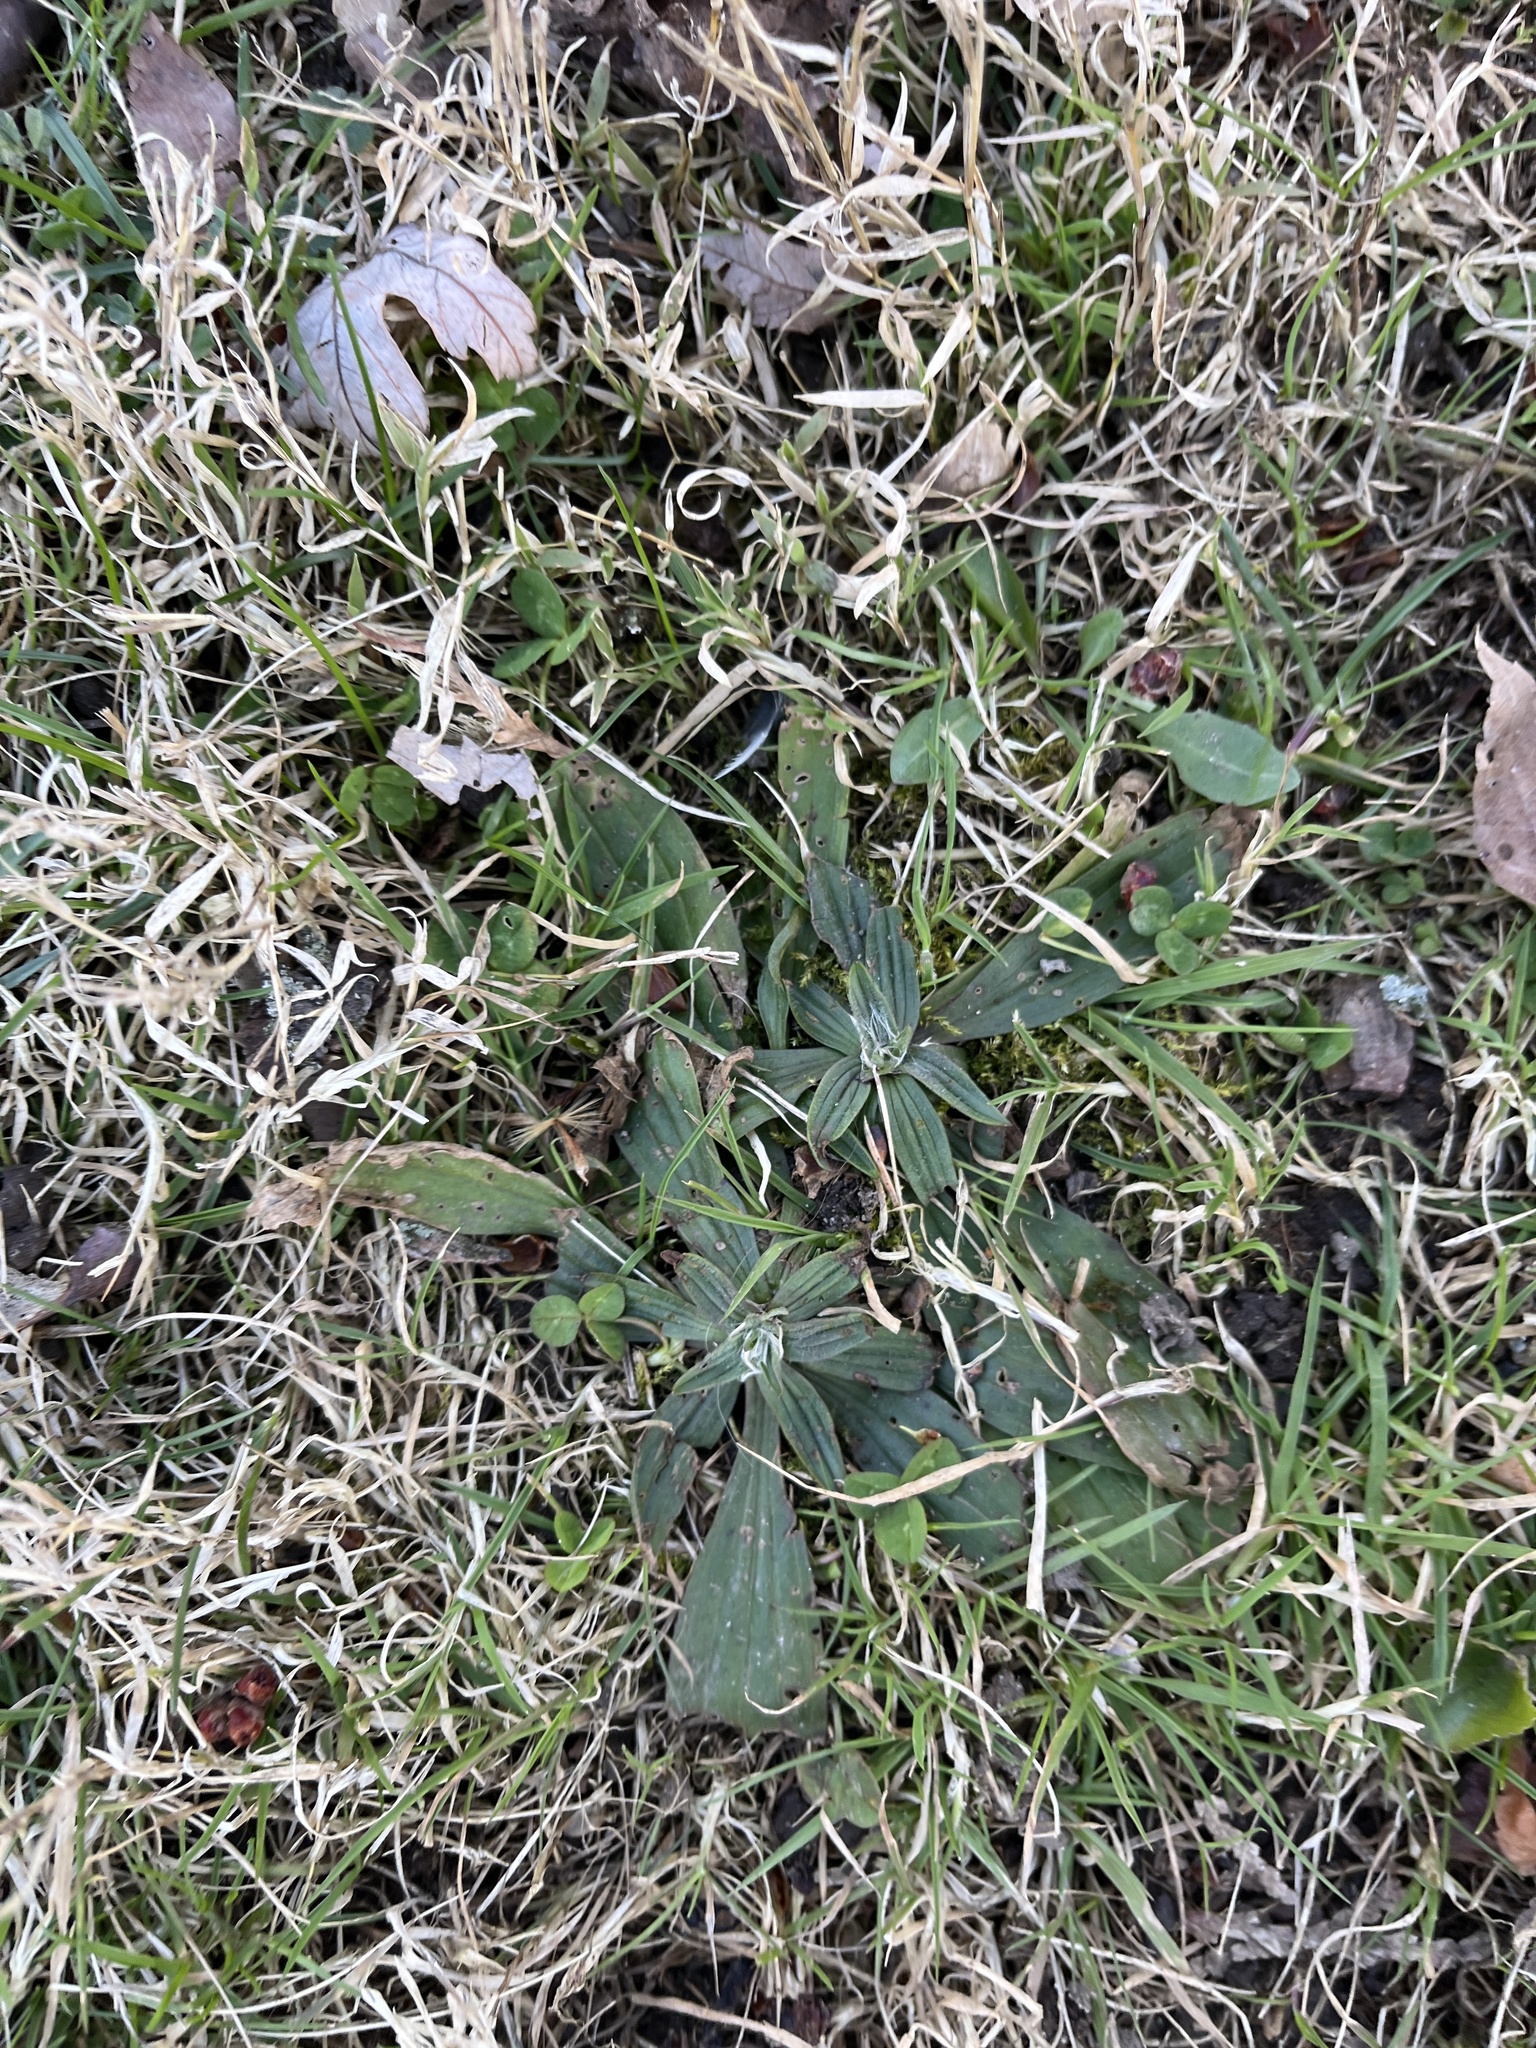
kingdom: Plantae
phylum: Tracheophyta
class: Magnoliopsida
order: Lamiales
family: Plantaginaceae
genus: Plantago
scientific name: Plantago lanceolata
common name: Ribwort plantain
